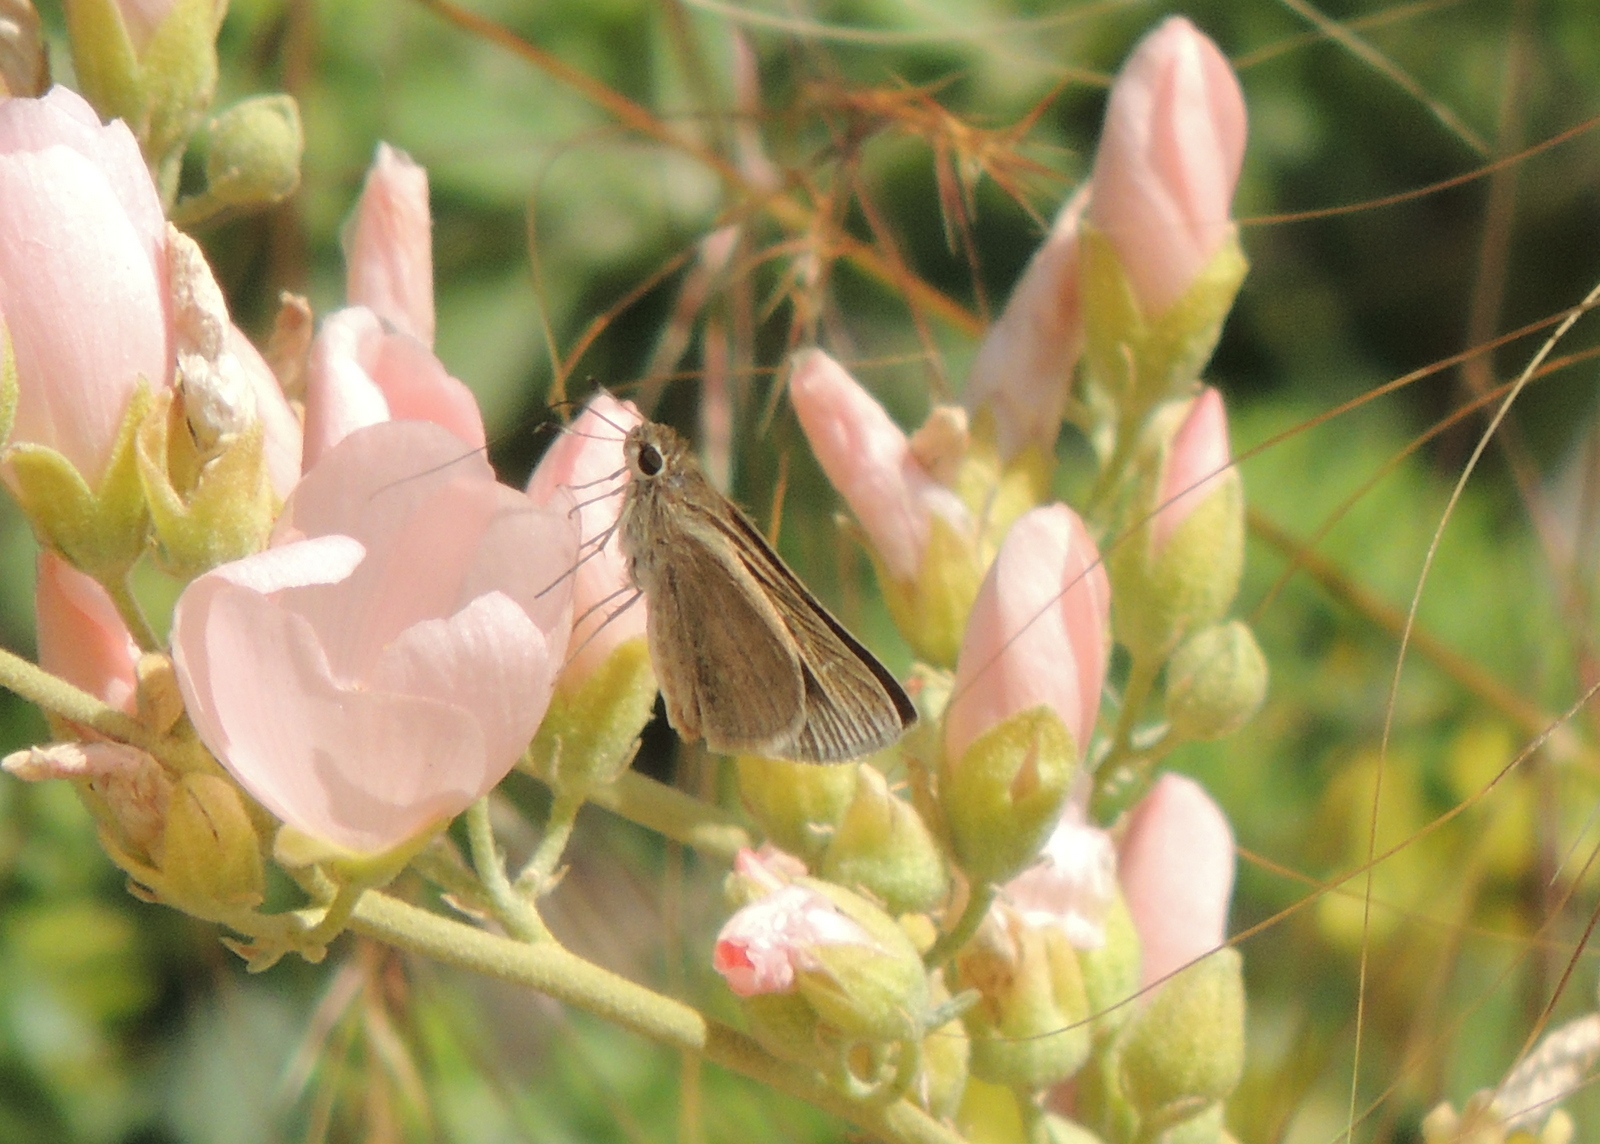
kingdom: Animalia
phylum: Arthropoda
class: Insecta
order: Lepidoptera
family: Hesperiidae
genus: Lerodea
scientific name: Lerodea eufala
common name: Eufala skipper
